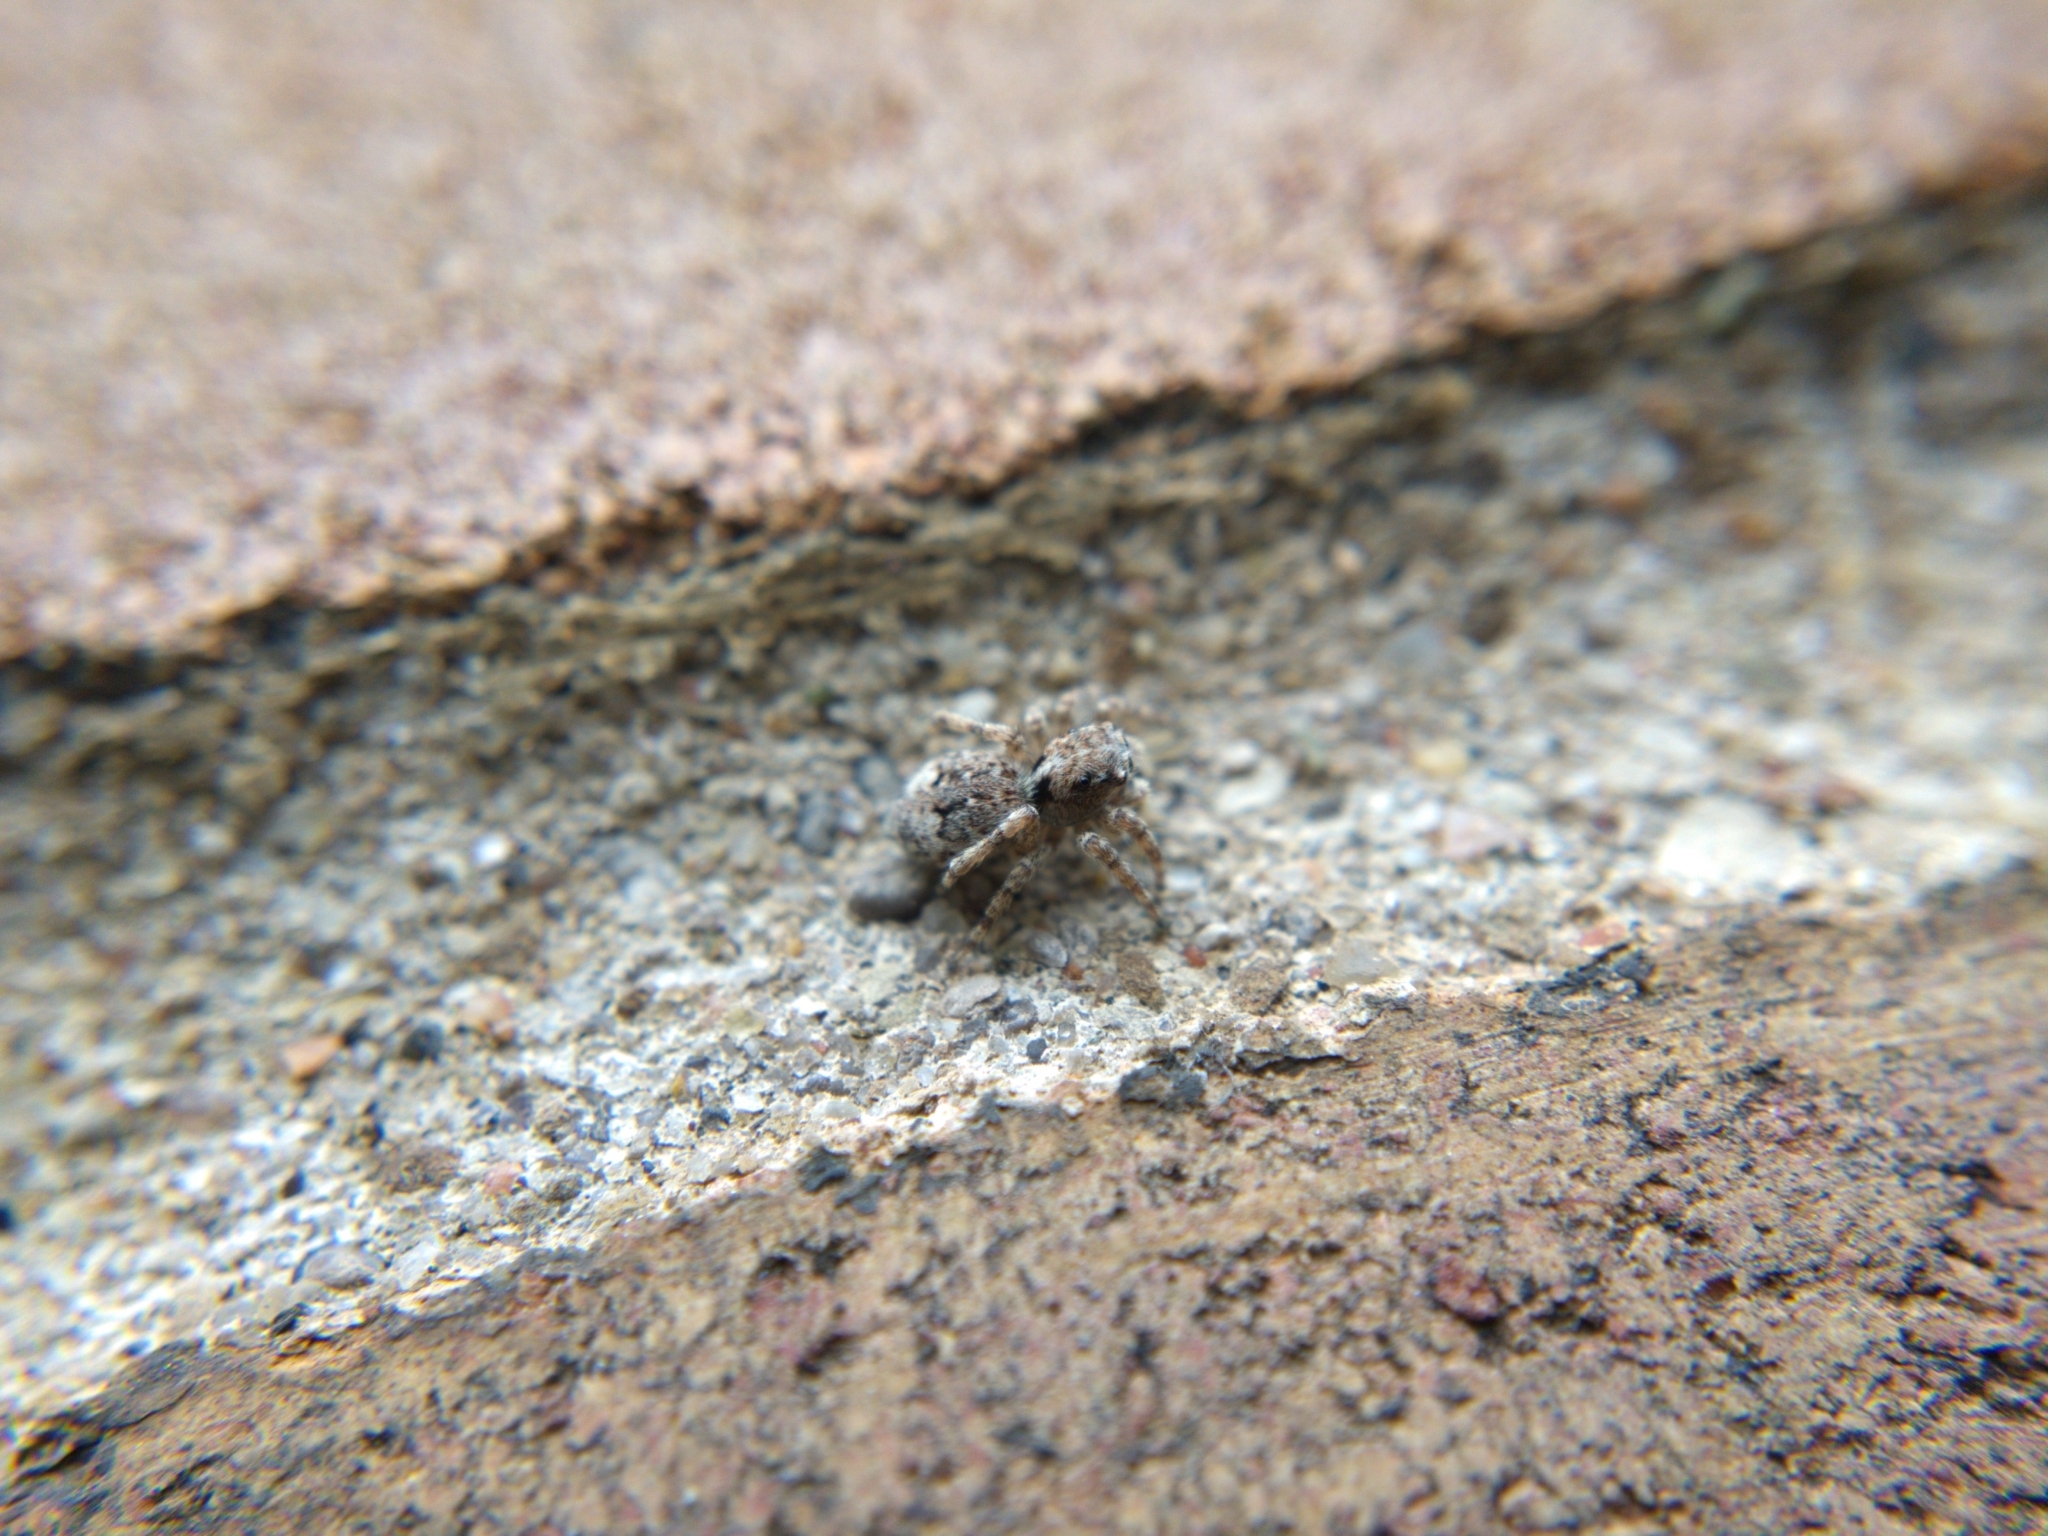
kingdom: Animalia
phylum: Arthropoda
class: Arachnida
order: Araneae
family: Salticidae
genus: Attulus
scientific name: Attulus fasciger
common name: Asiatic wall jumping spider
